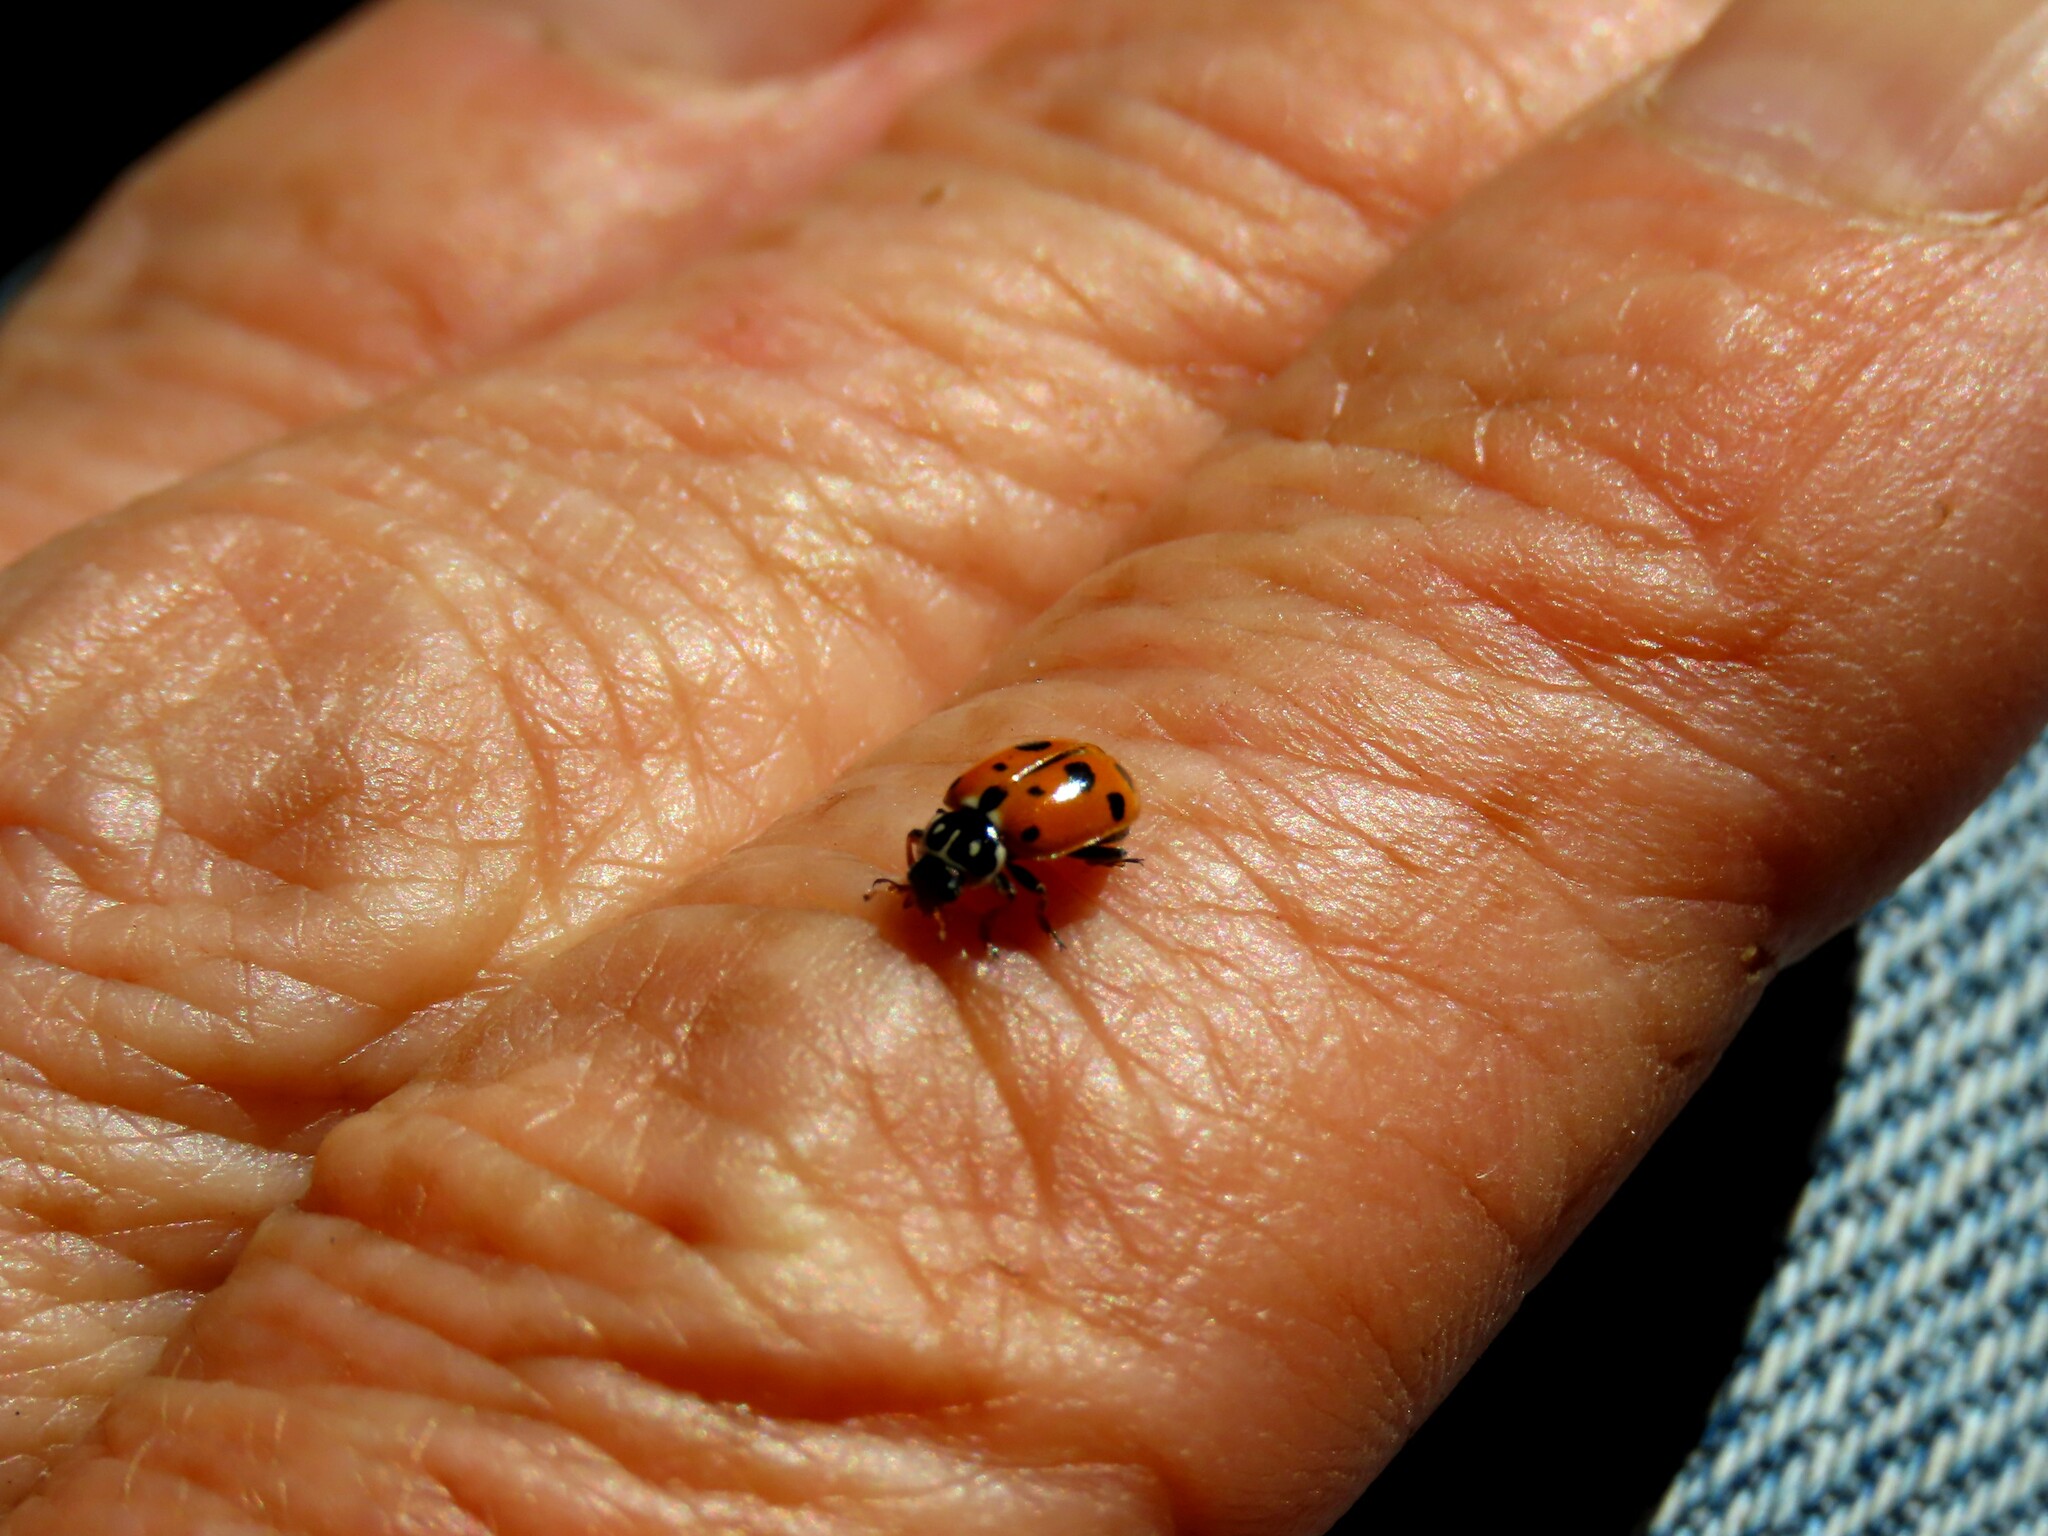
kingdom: Animalia
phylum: Arthropoda
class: Insecta
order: Coleoptera
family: Coccinellidae
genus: Hippodamia
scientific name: Hippodamia variegata
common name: Ladybird beetle
